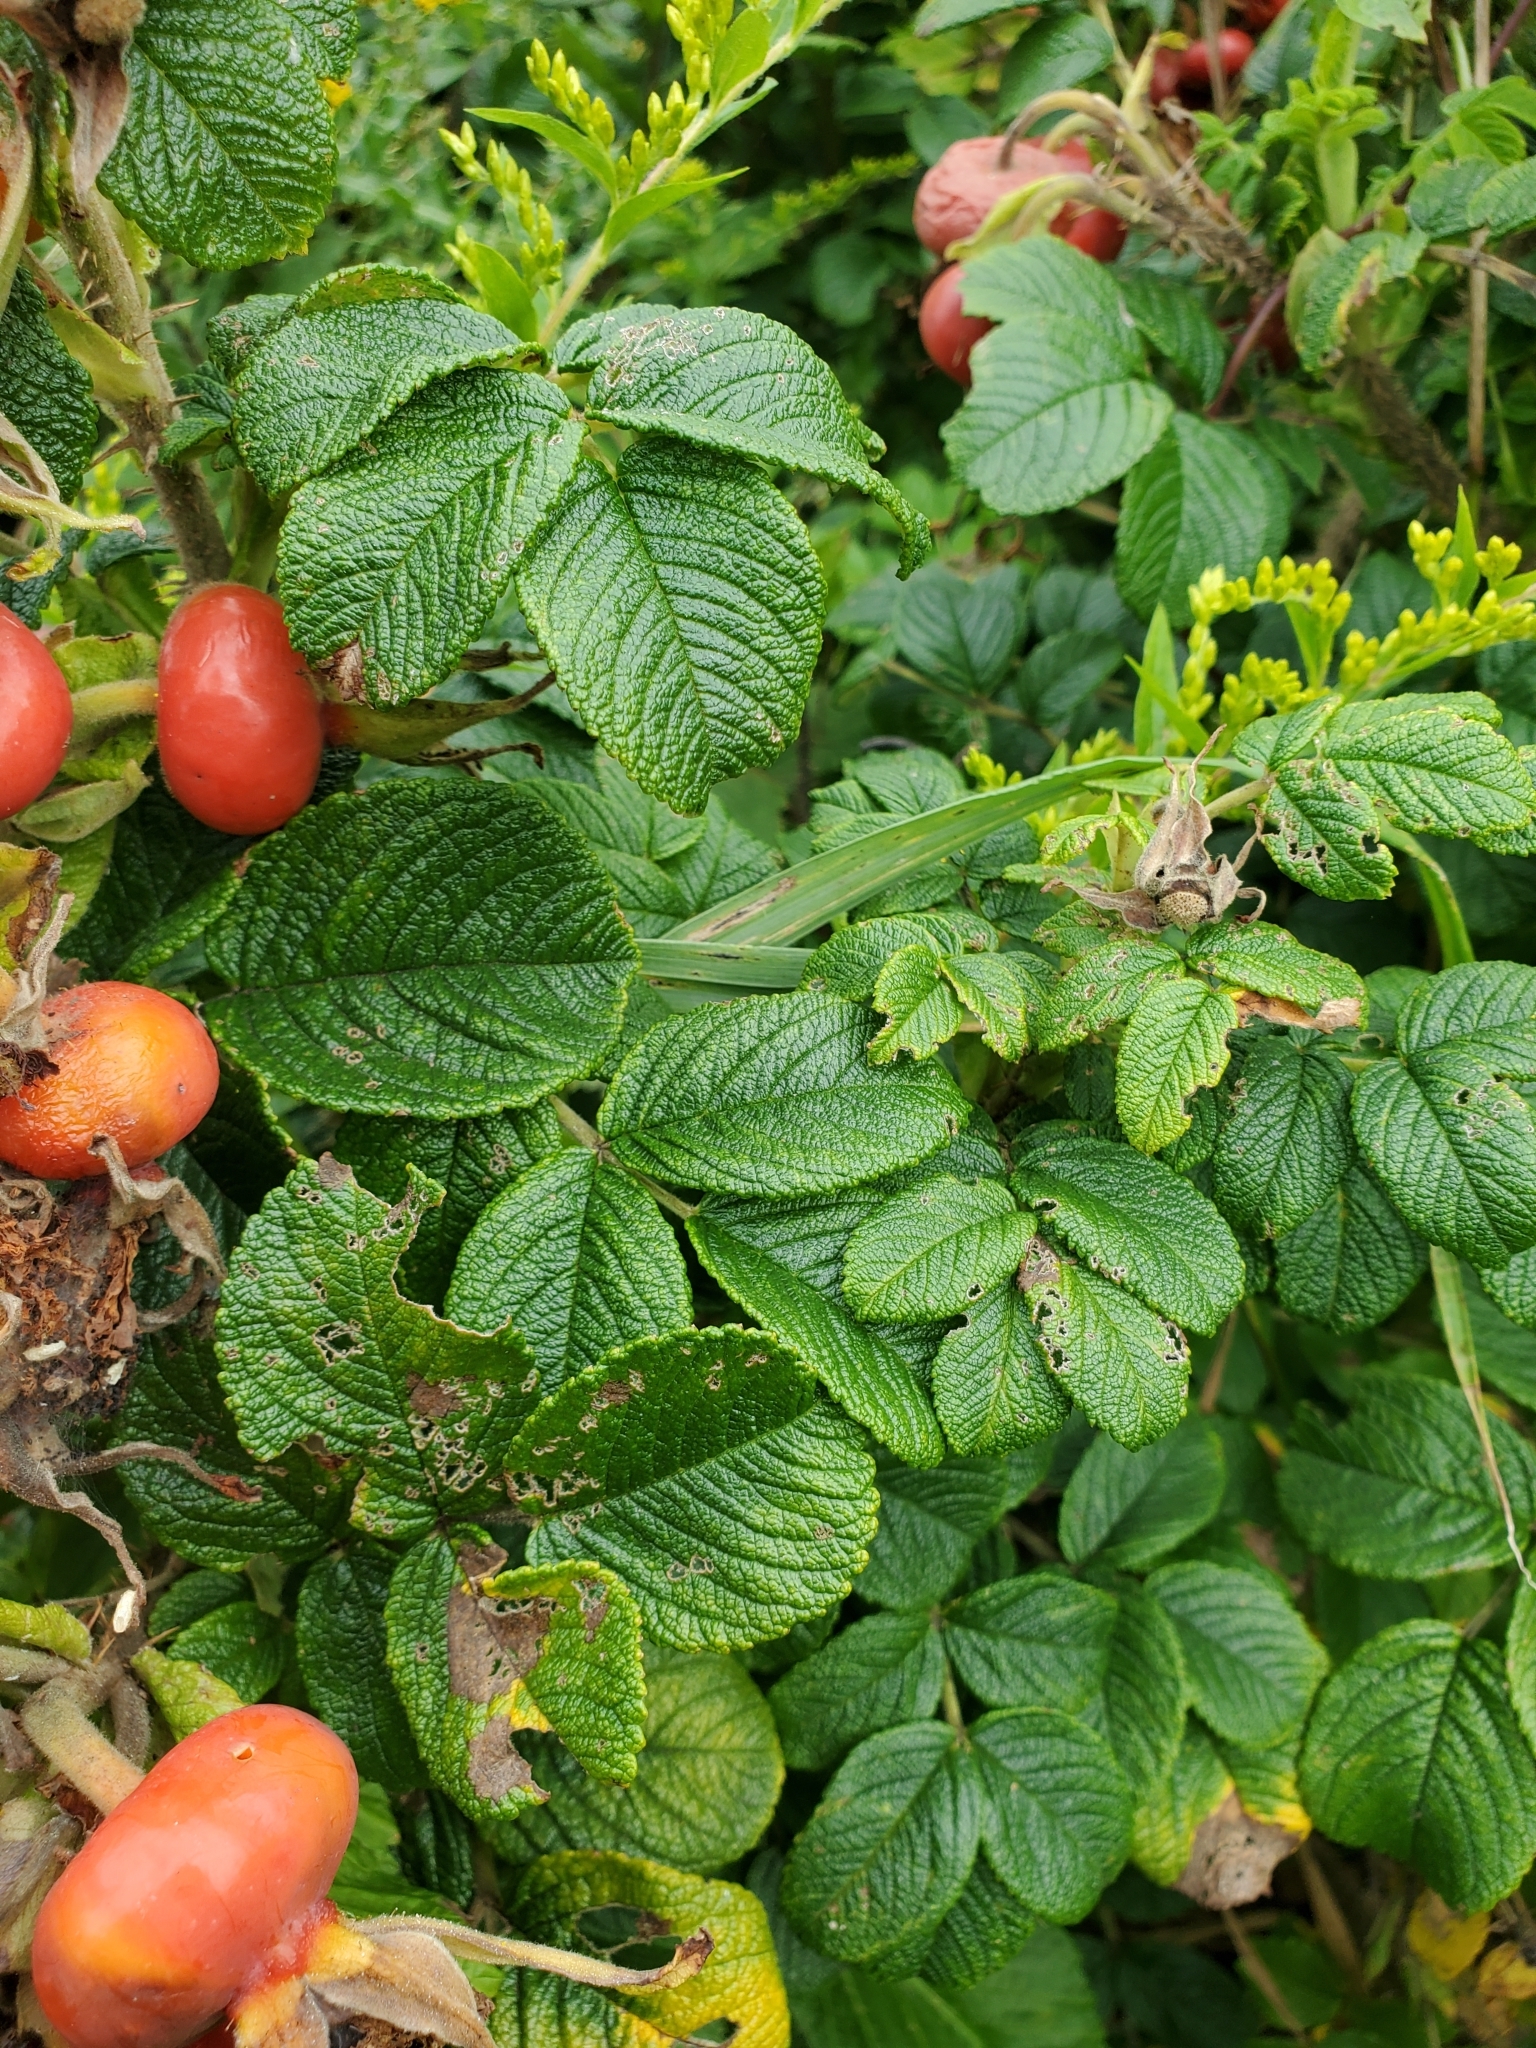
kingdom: Plantae
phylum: Tracheophyta
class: Magnoliopsida
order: Rosales
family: Rosaceae
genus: Rosa
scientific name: Rosa rugosa
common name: Japanese rose
